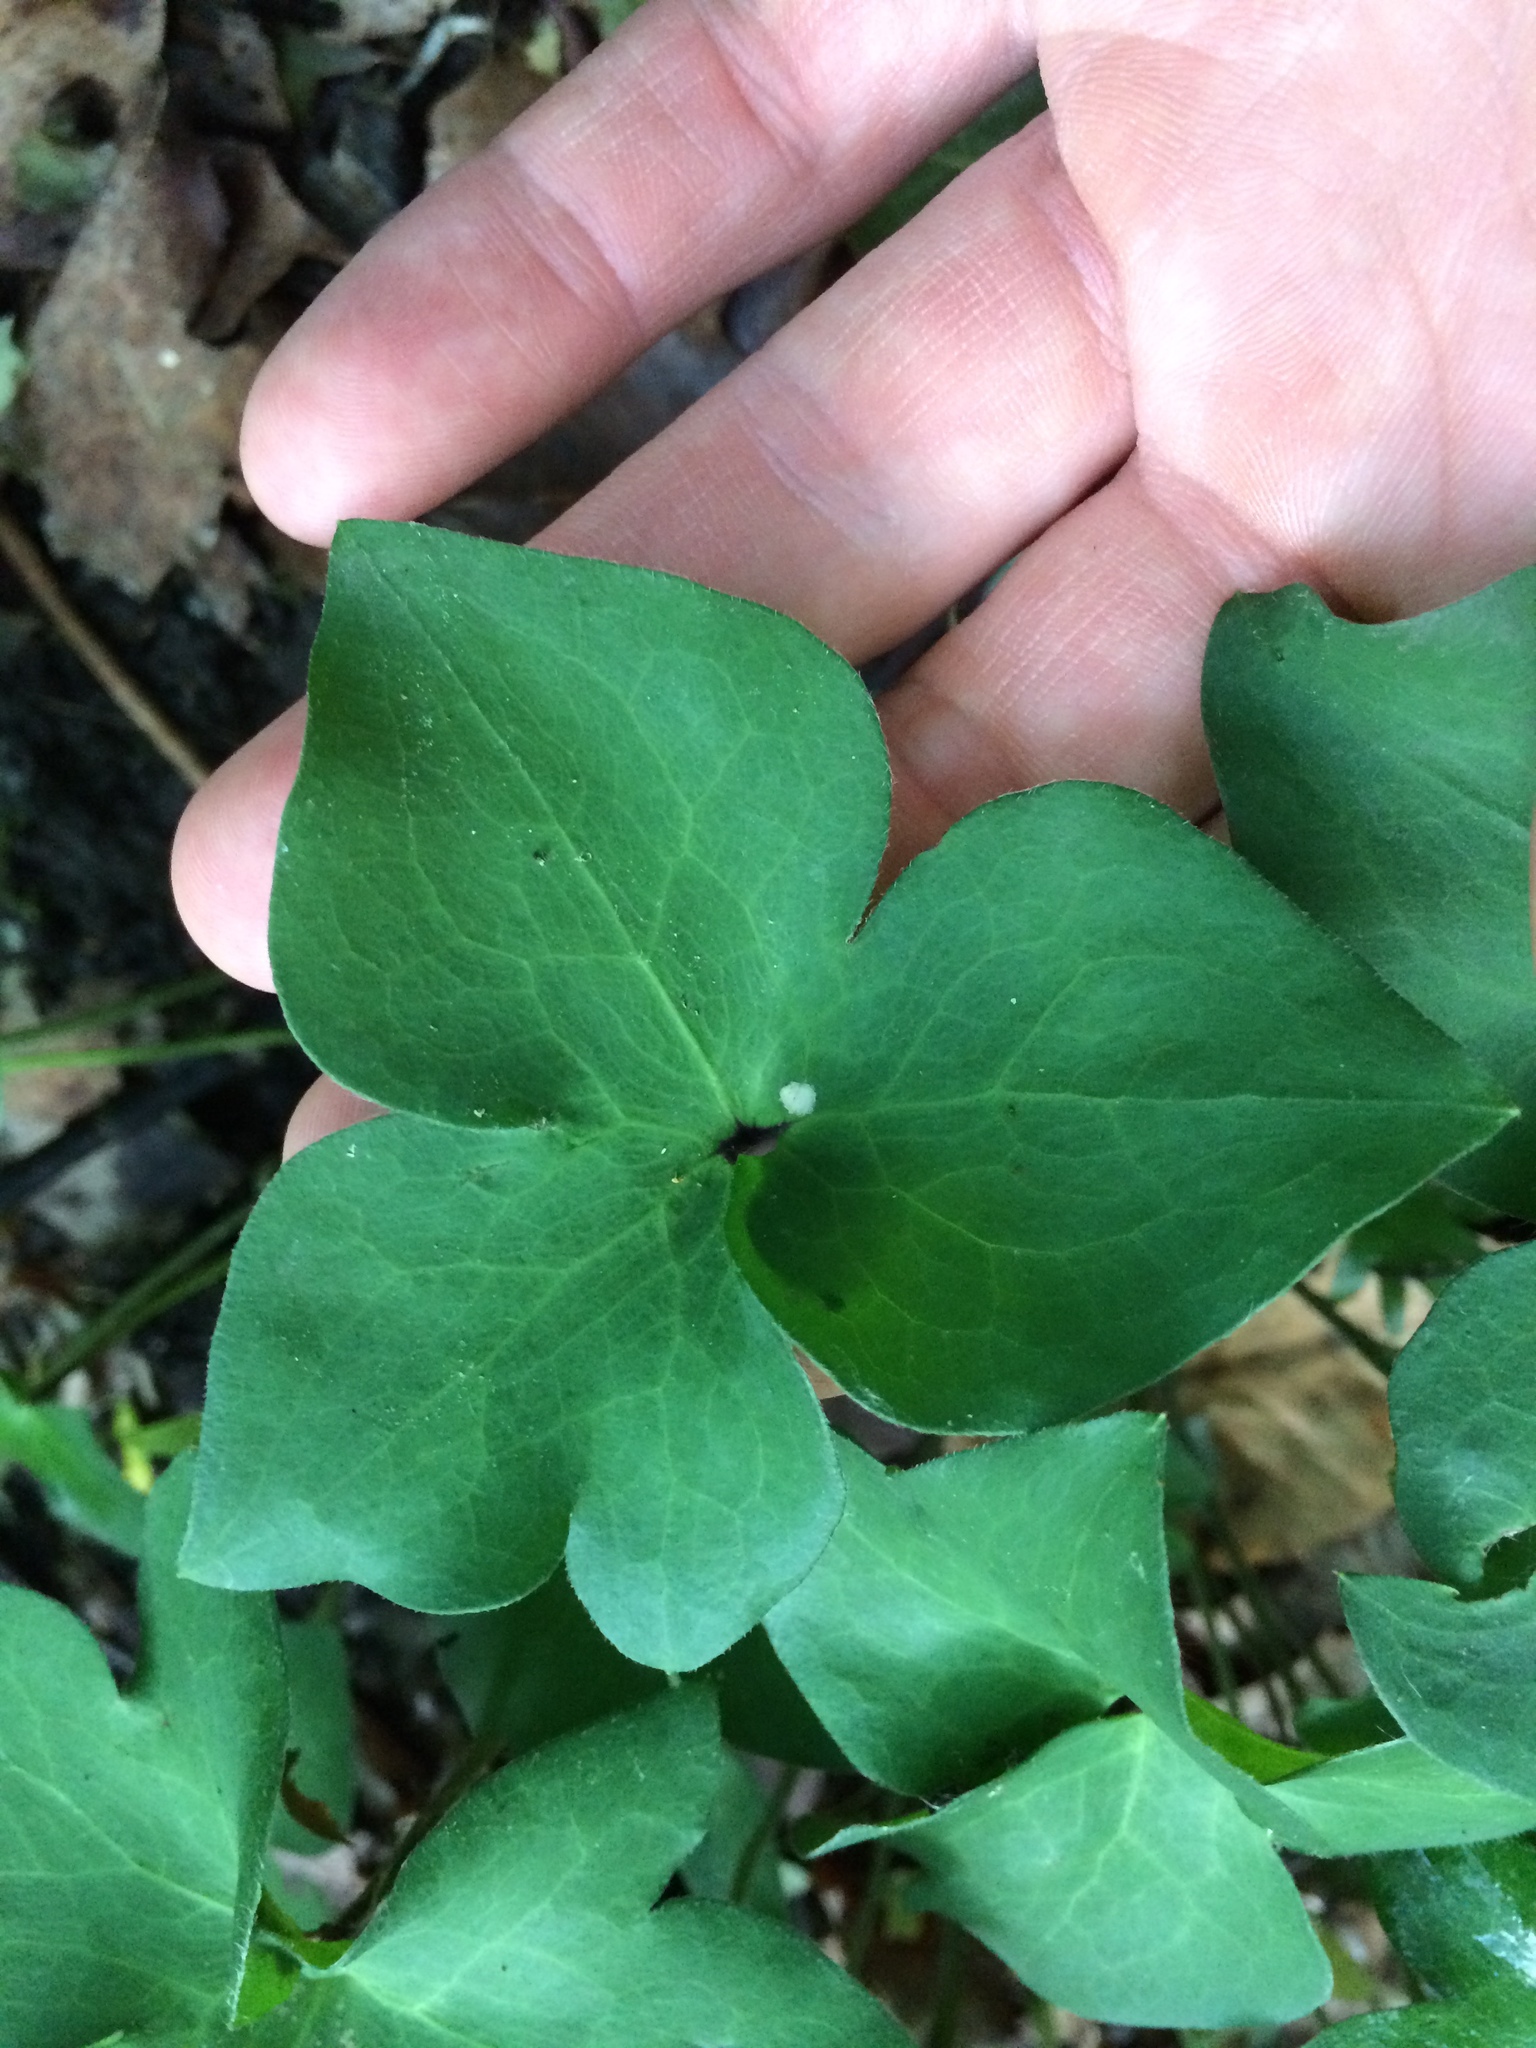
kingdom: Plantae
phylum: Tracheophyta
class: Magnoliopsida
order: Ranunculales
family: Ranunculaceae
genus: Hepatica
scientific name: Hepatica acutiloba
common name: Sharp-lobed hepatica
